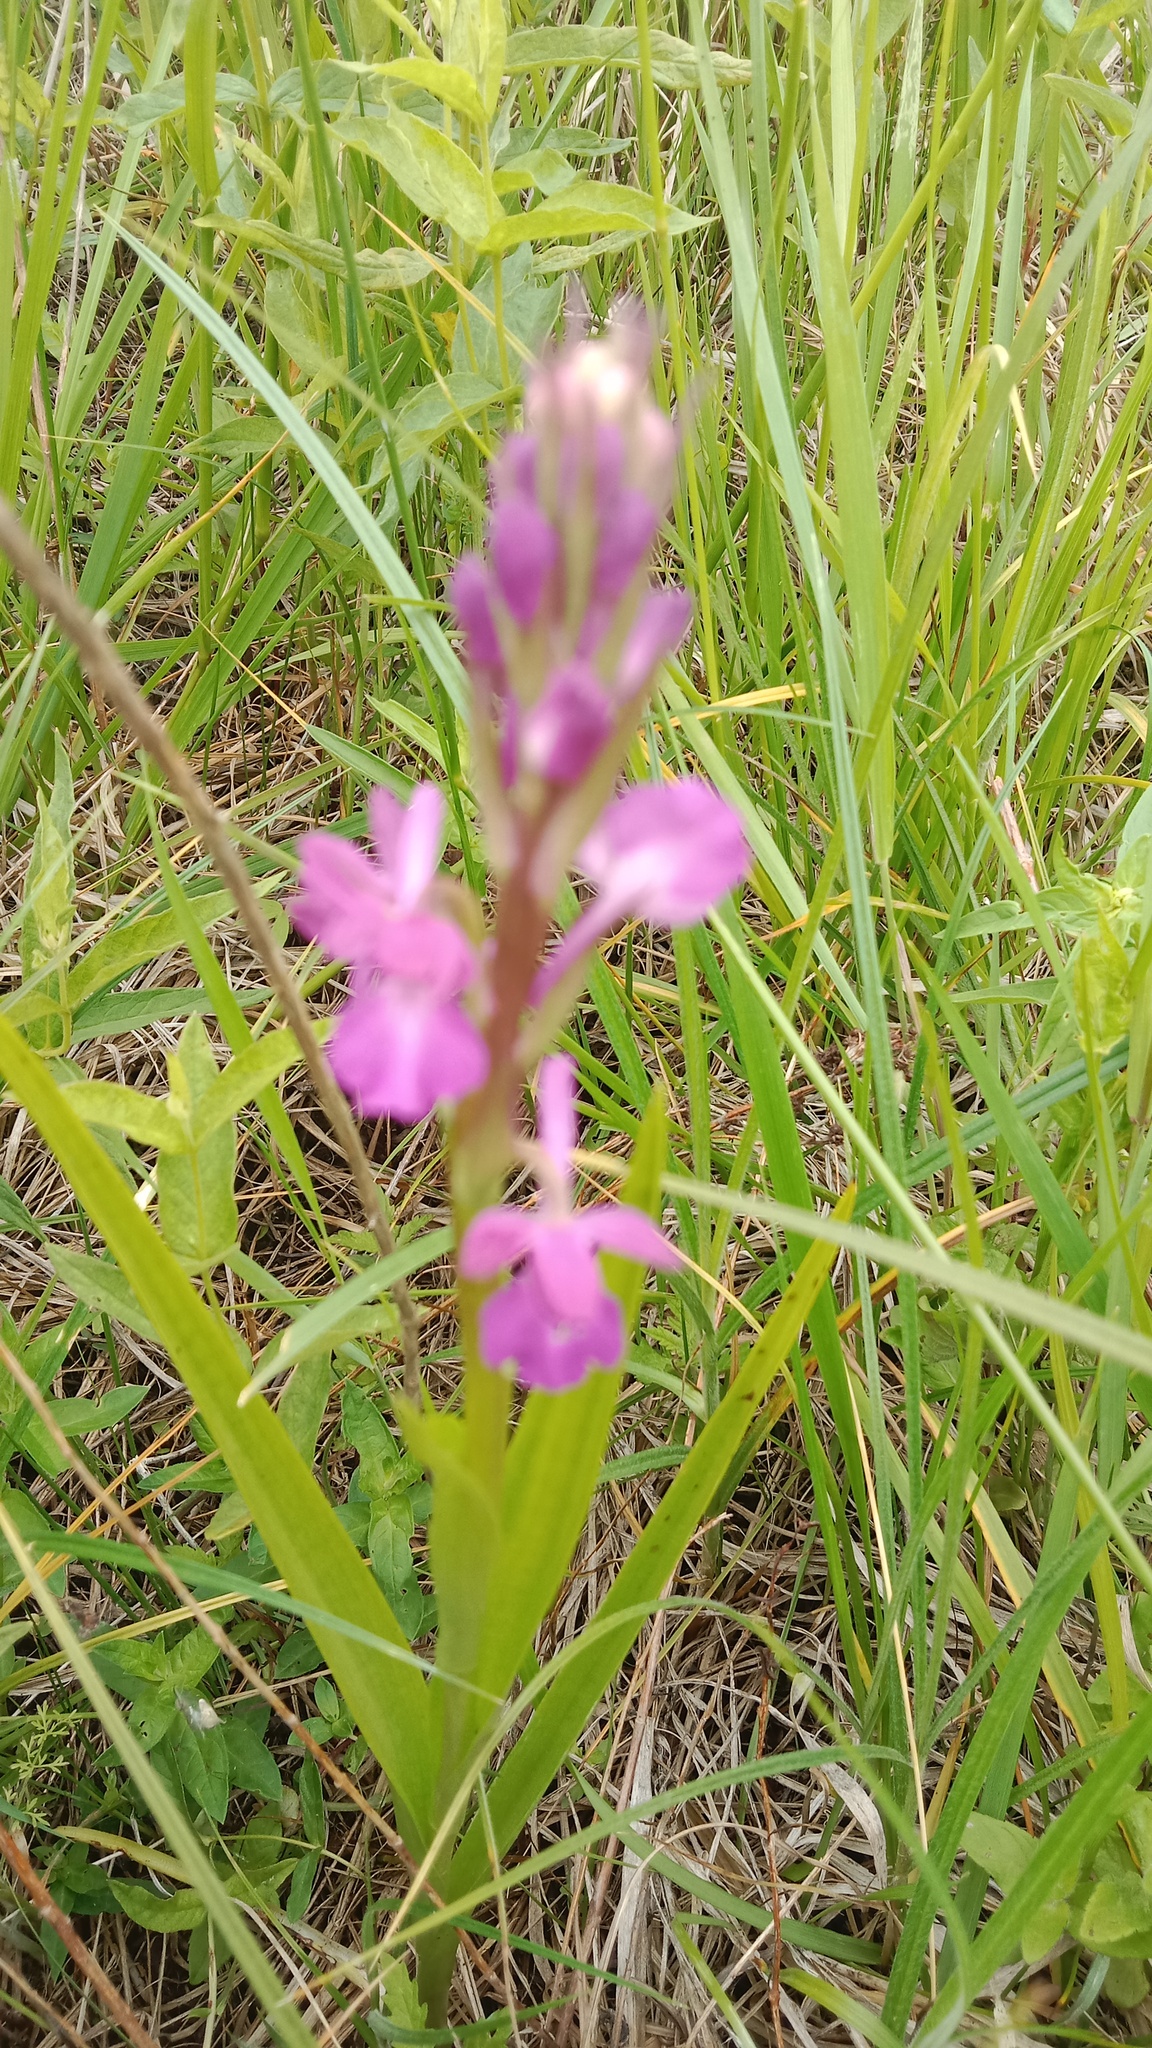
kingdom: Plantae
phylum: Tracheophyta
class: Liliopsida
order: Asparagales
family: Orchidaceae
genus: Anacamptis
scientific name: Anacamptis palustris
